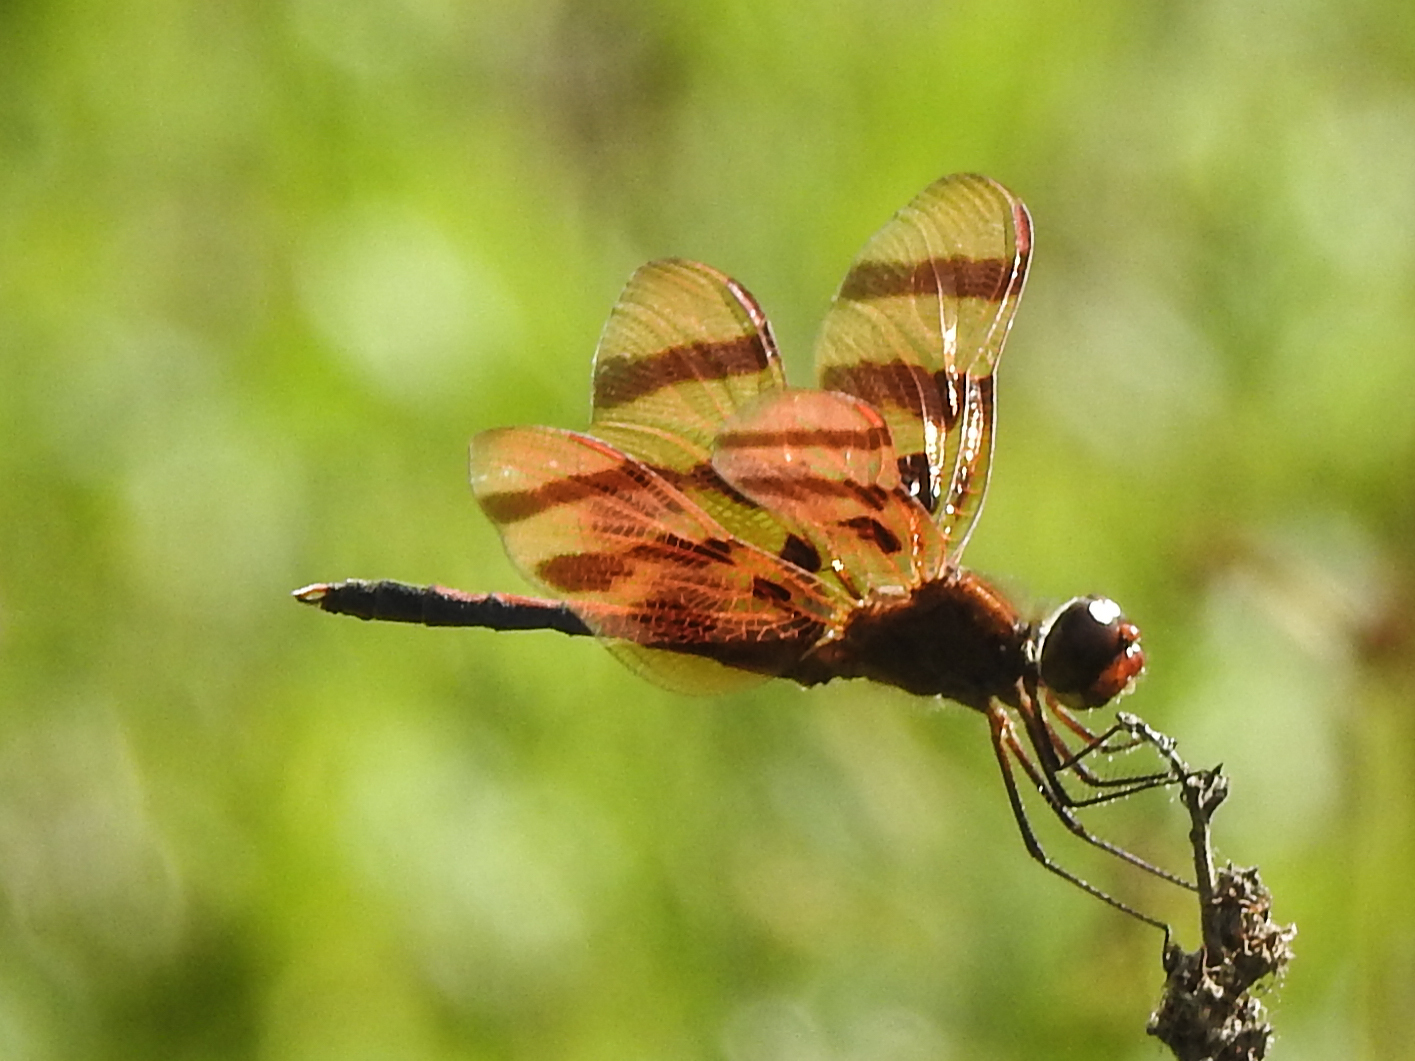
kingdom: Animalia
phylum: Arthropoda
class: Insecta
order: Odonata
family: Libellulidae
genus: Celithemis
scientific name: Celithemis eponina
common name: Halloween pennant
